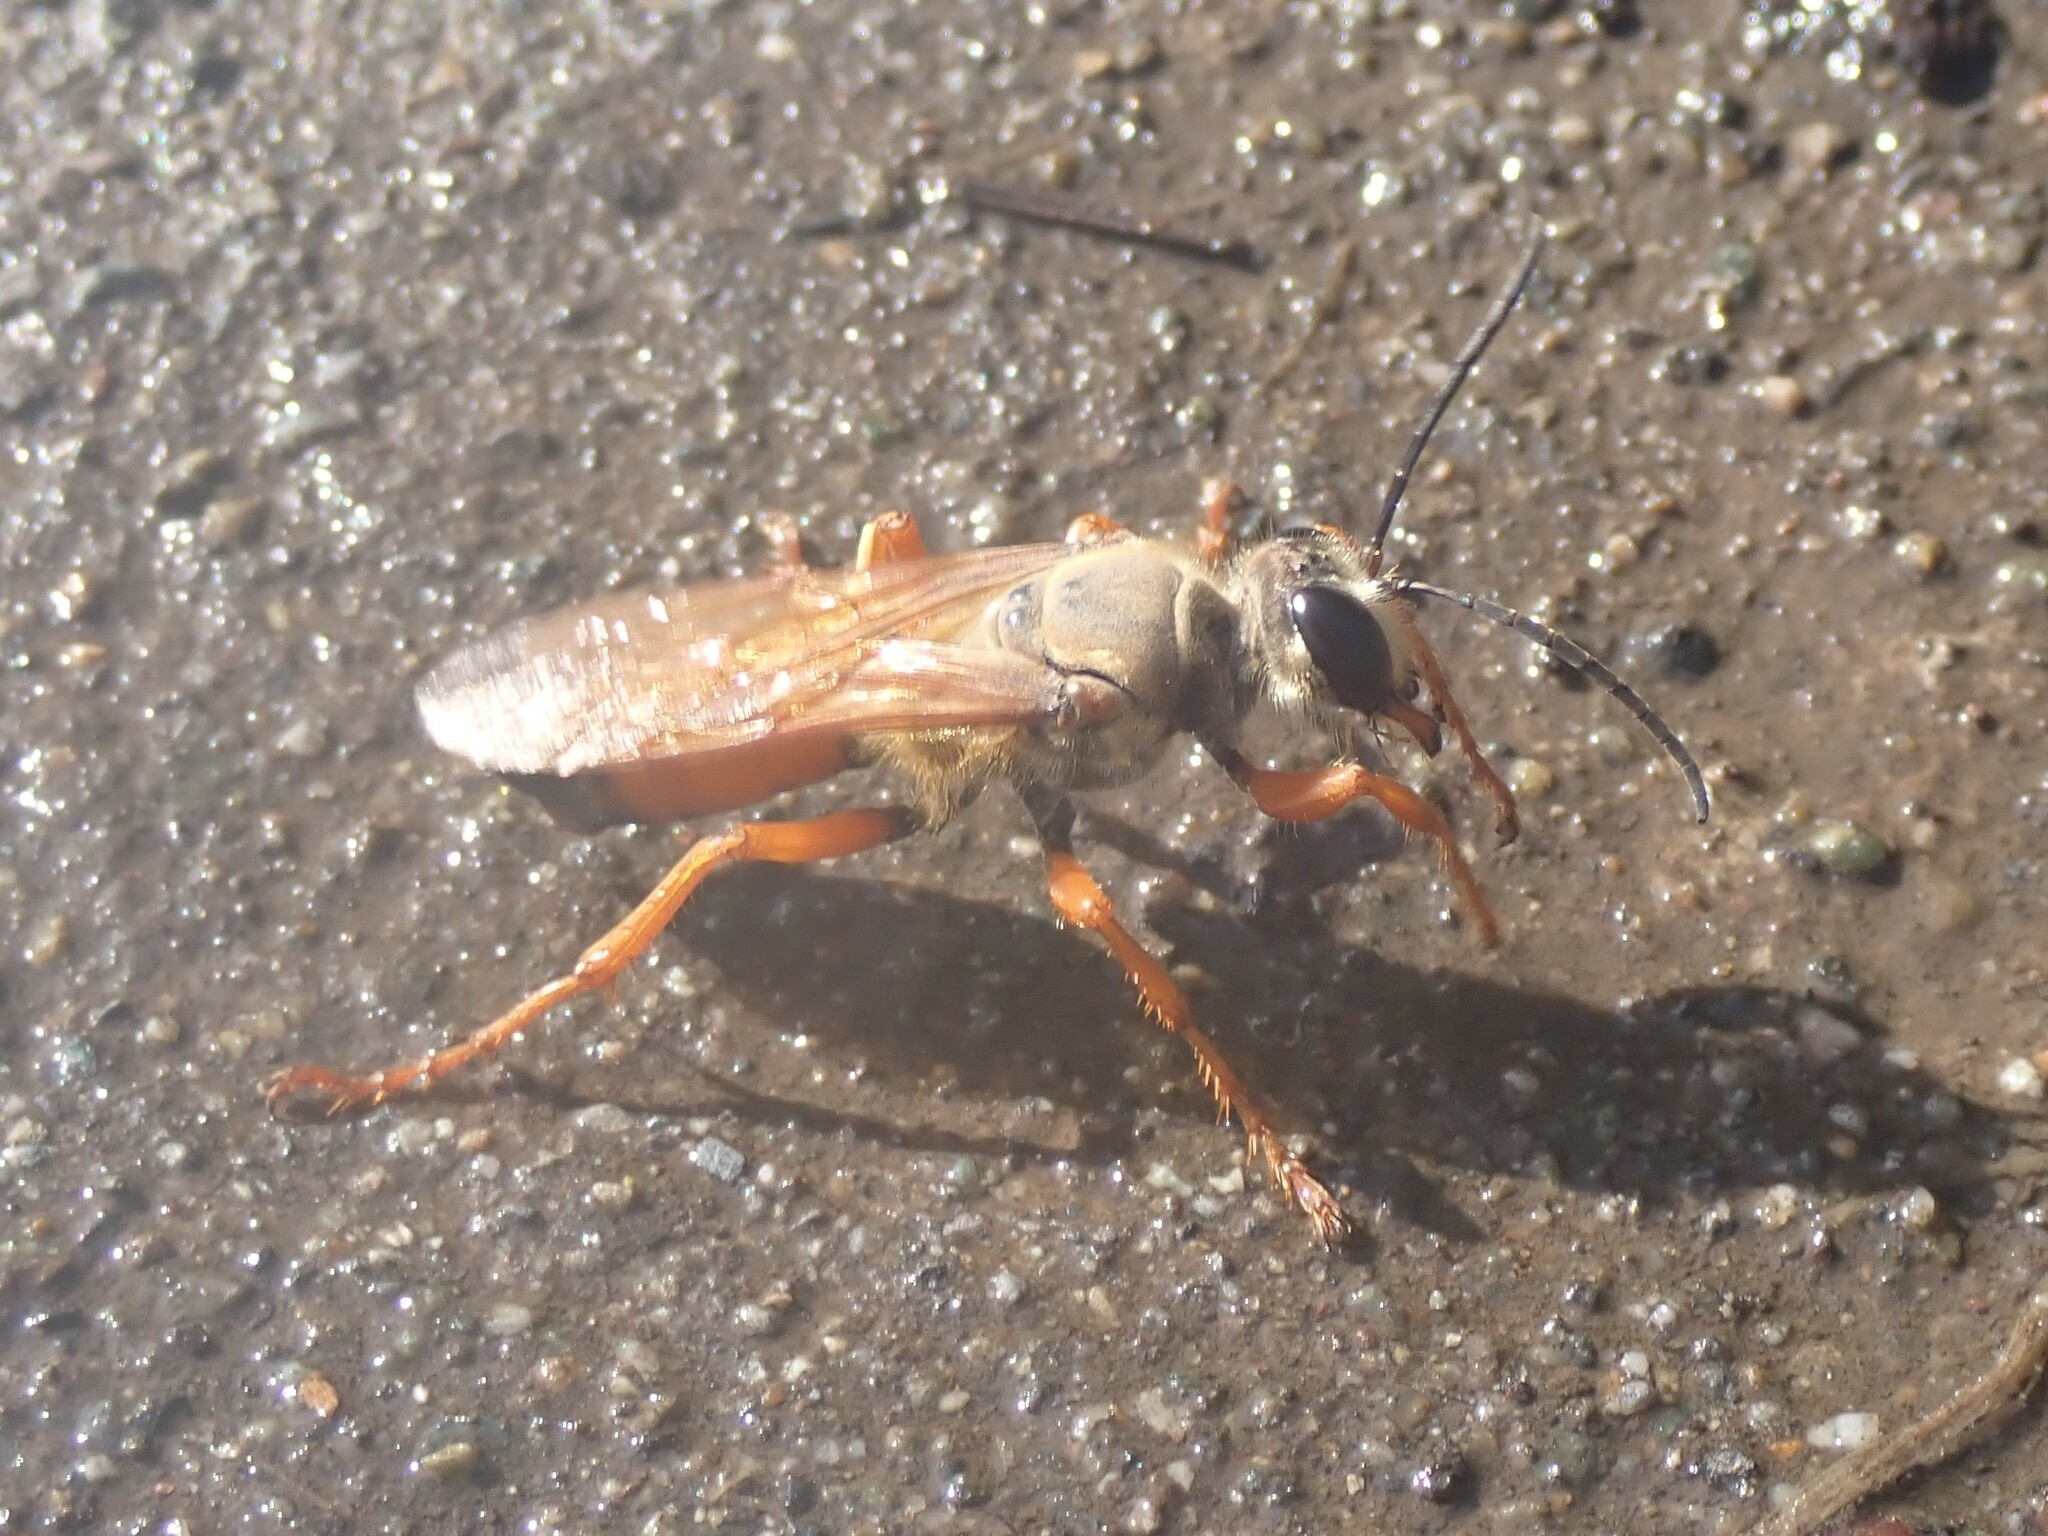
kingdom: Animalia
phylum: Arthropoda
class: Insecta
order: Hymenoptera
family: Sphecidae
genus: Sphex
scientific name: Sphex ichneumoneus
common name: Great golden digger wasp
